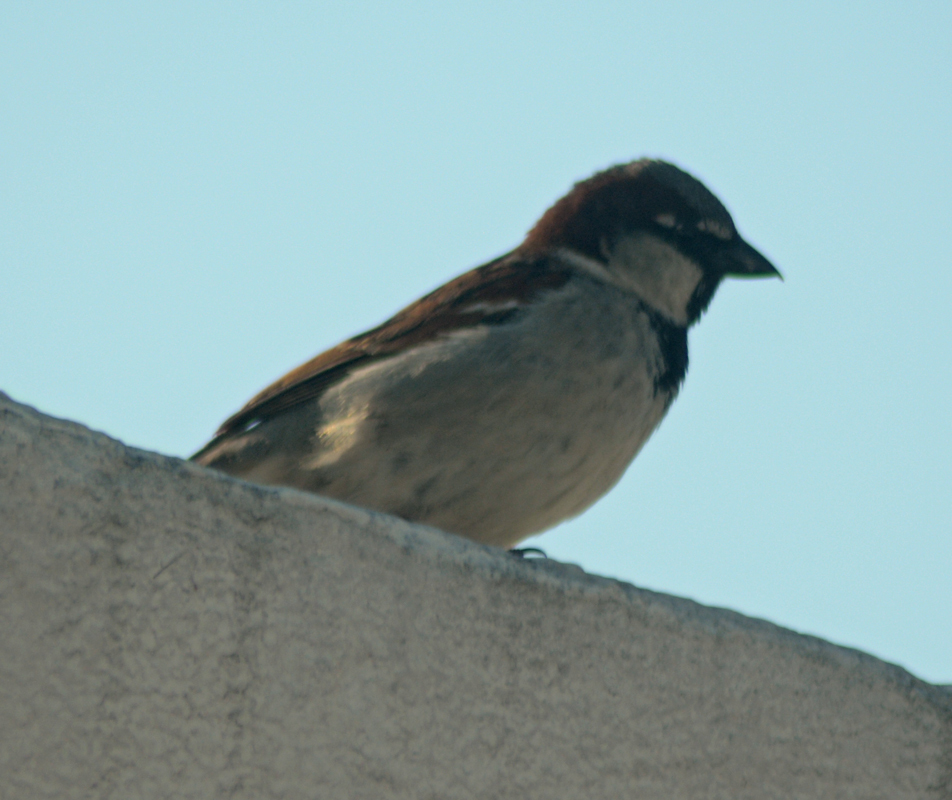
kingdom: Animalia
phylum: Chordata
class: Aves
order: Passeriformes
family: Passeridae
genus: Passer
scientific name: Passer domesticus
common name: House sparrow
